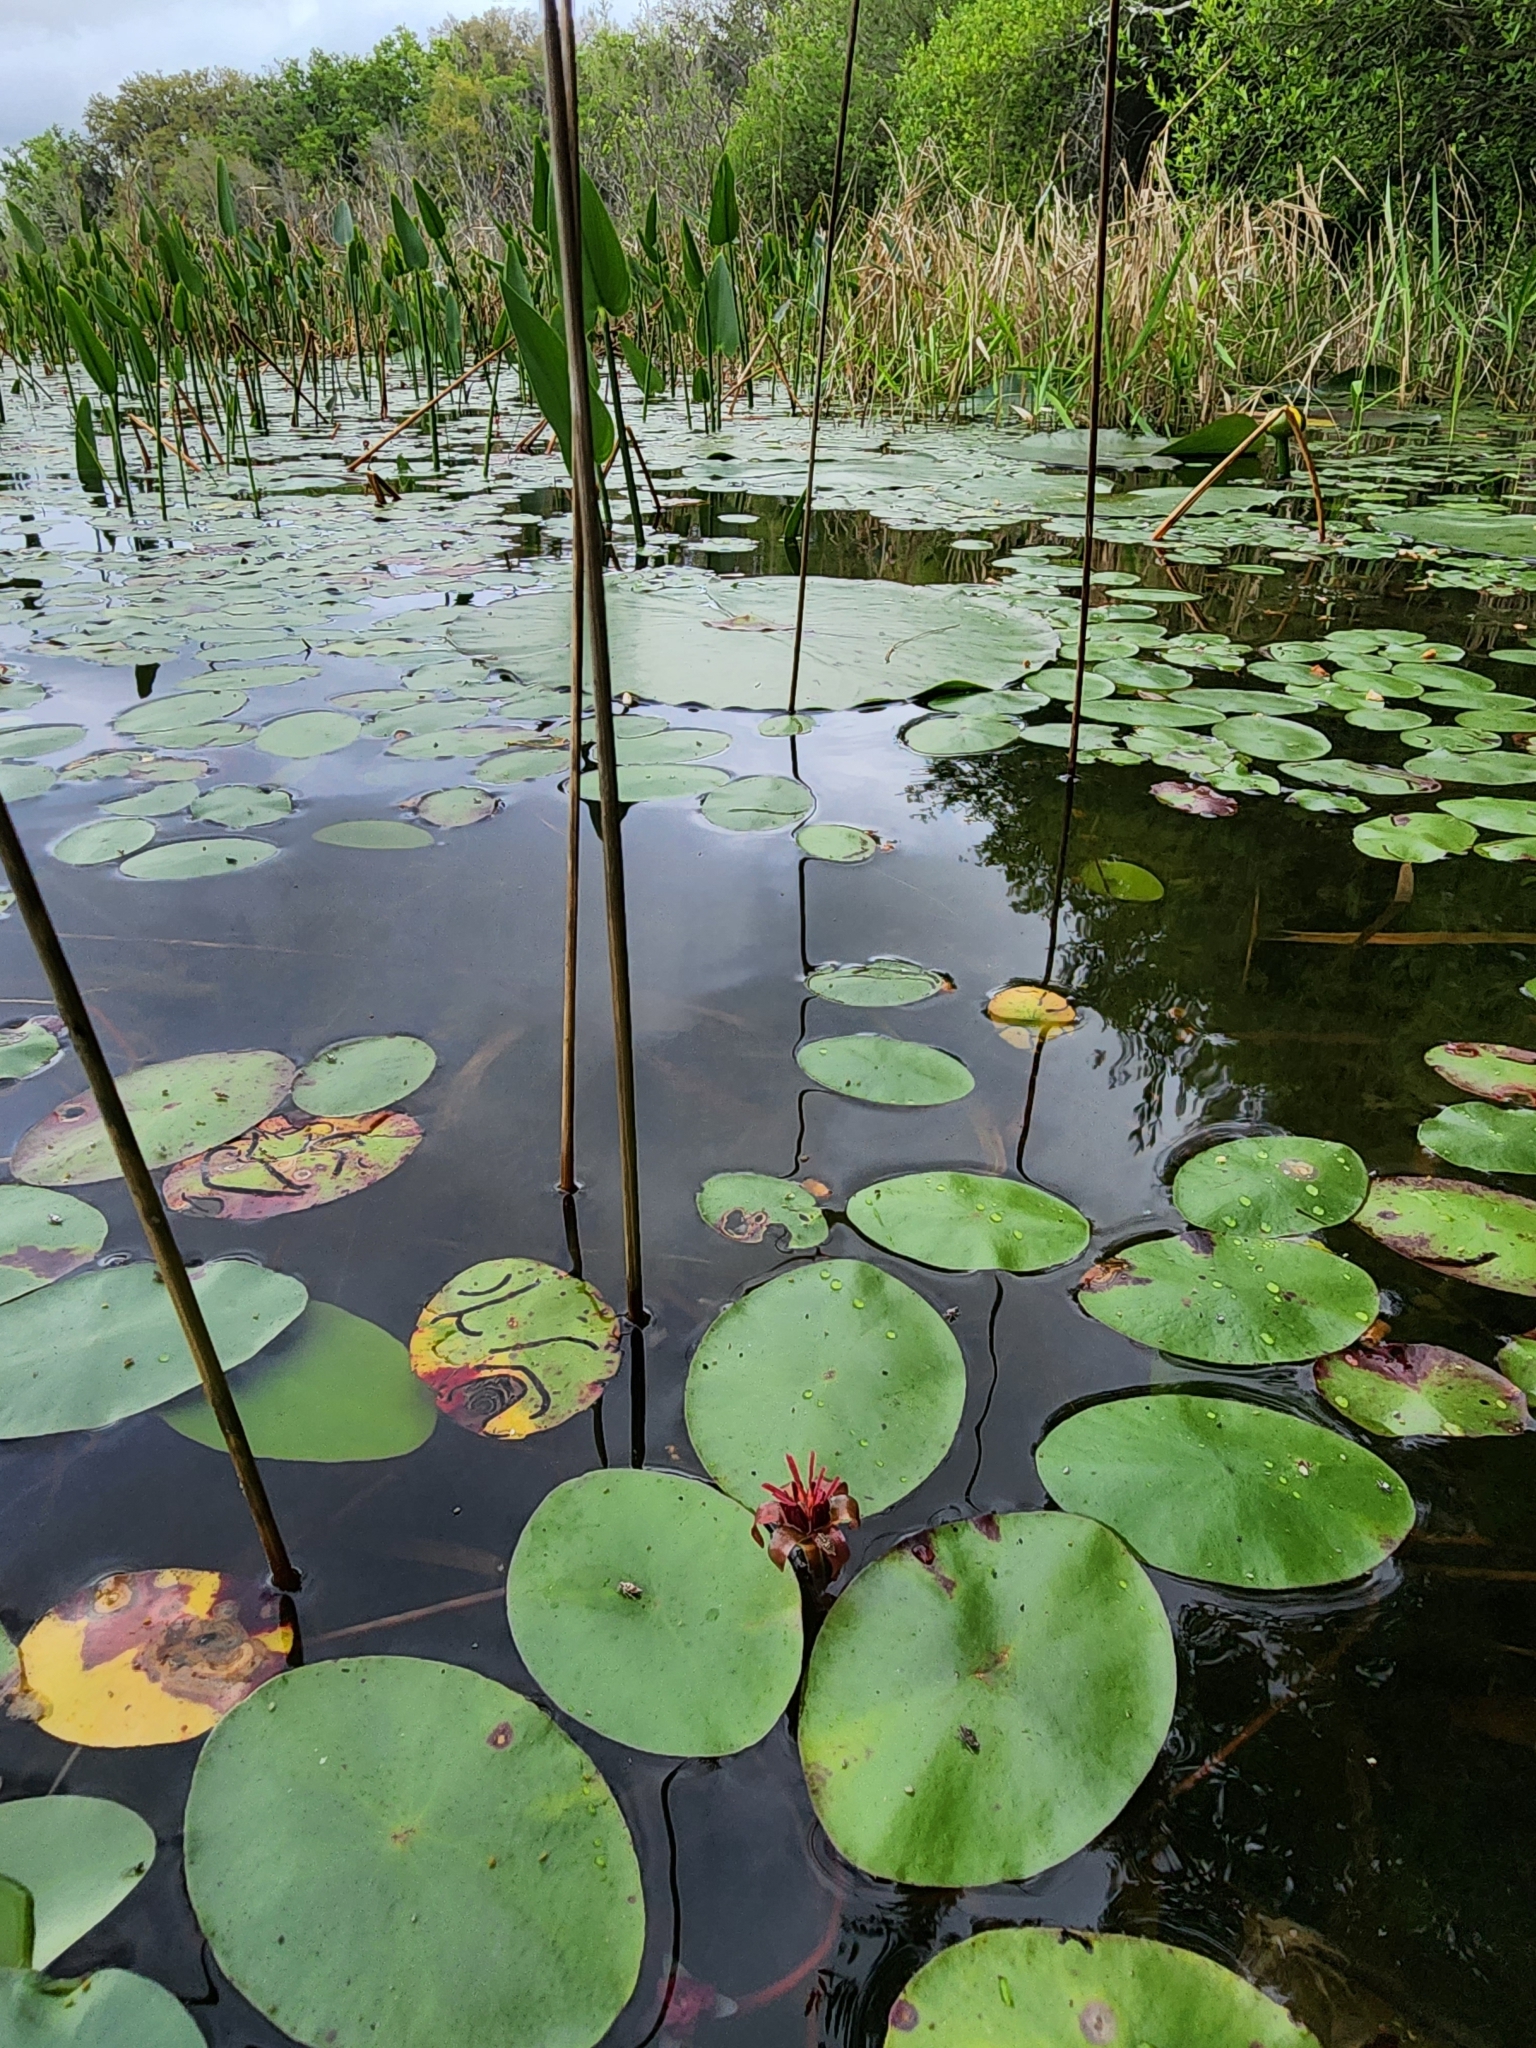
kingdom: Plantae
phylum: Tracheophyta
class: Magnoliopsida
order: Nymphaeales
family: Cabombaceae
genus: Brasenia
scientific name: Brasenia schreberi
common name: Water-shield
